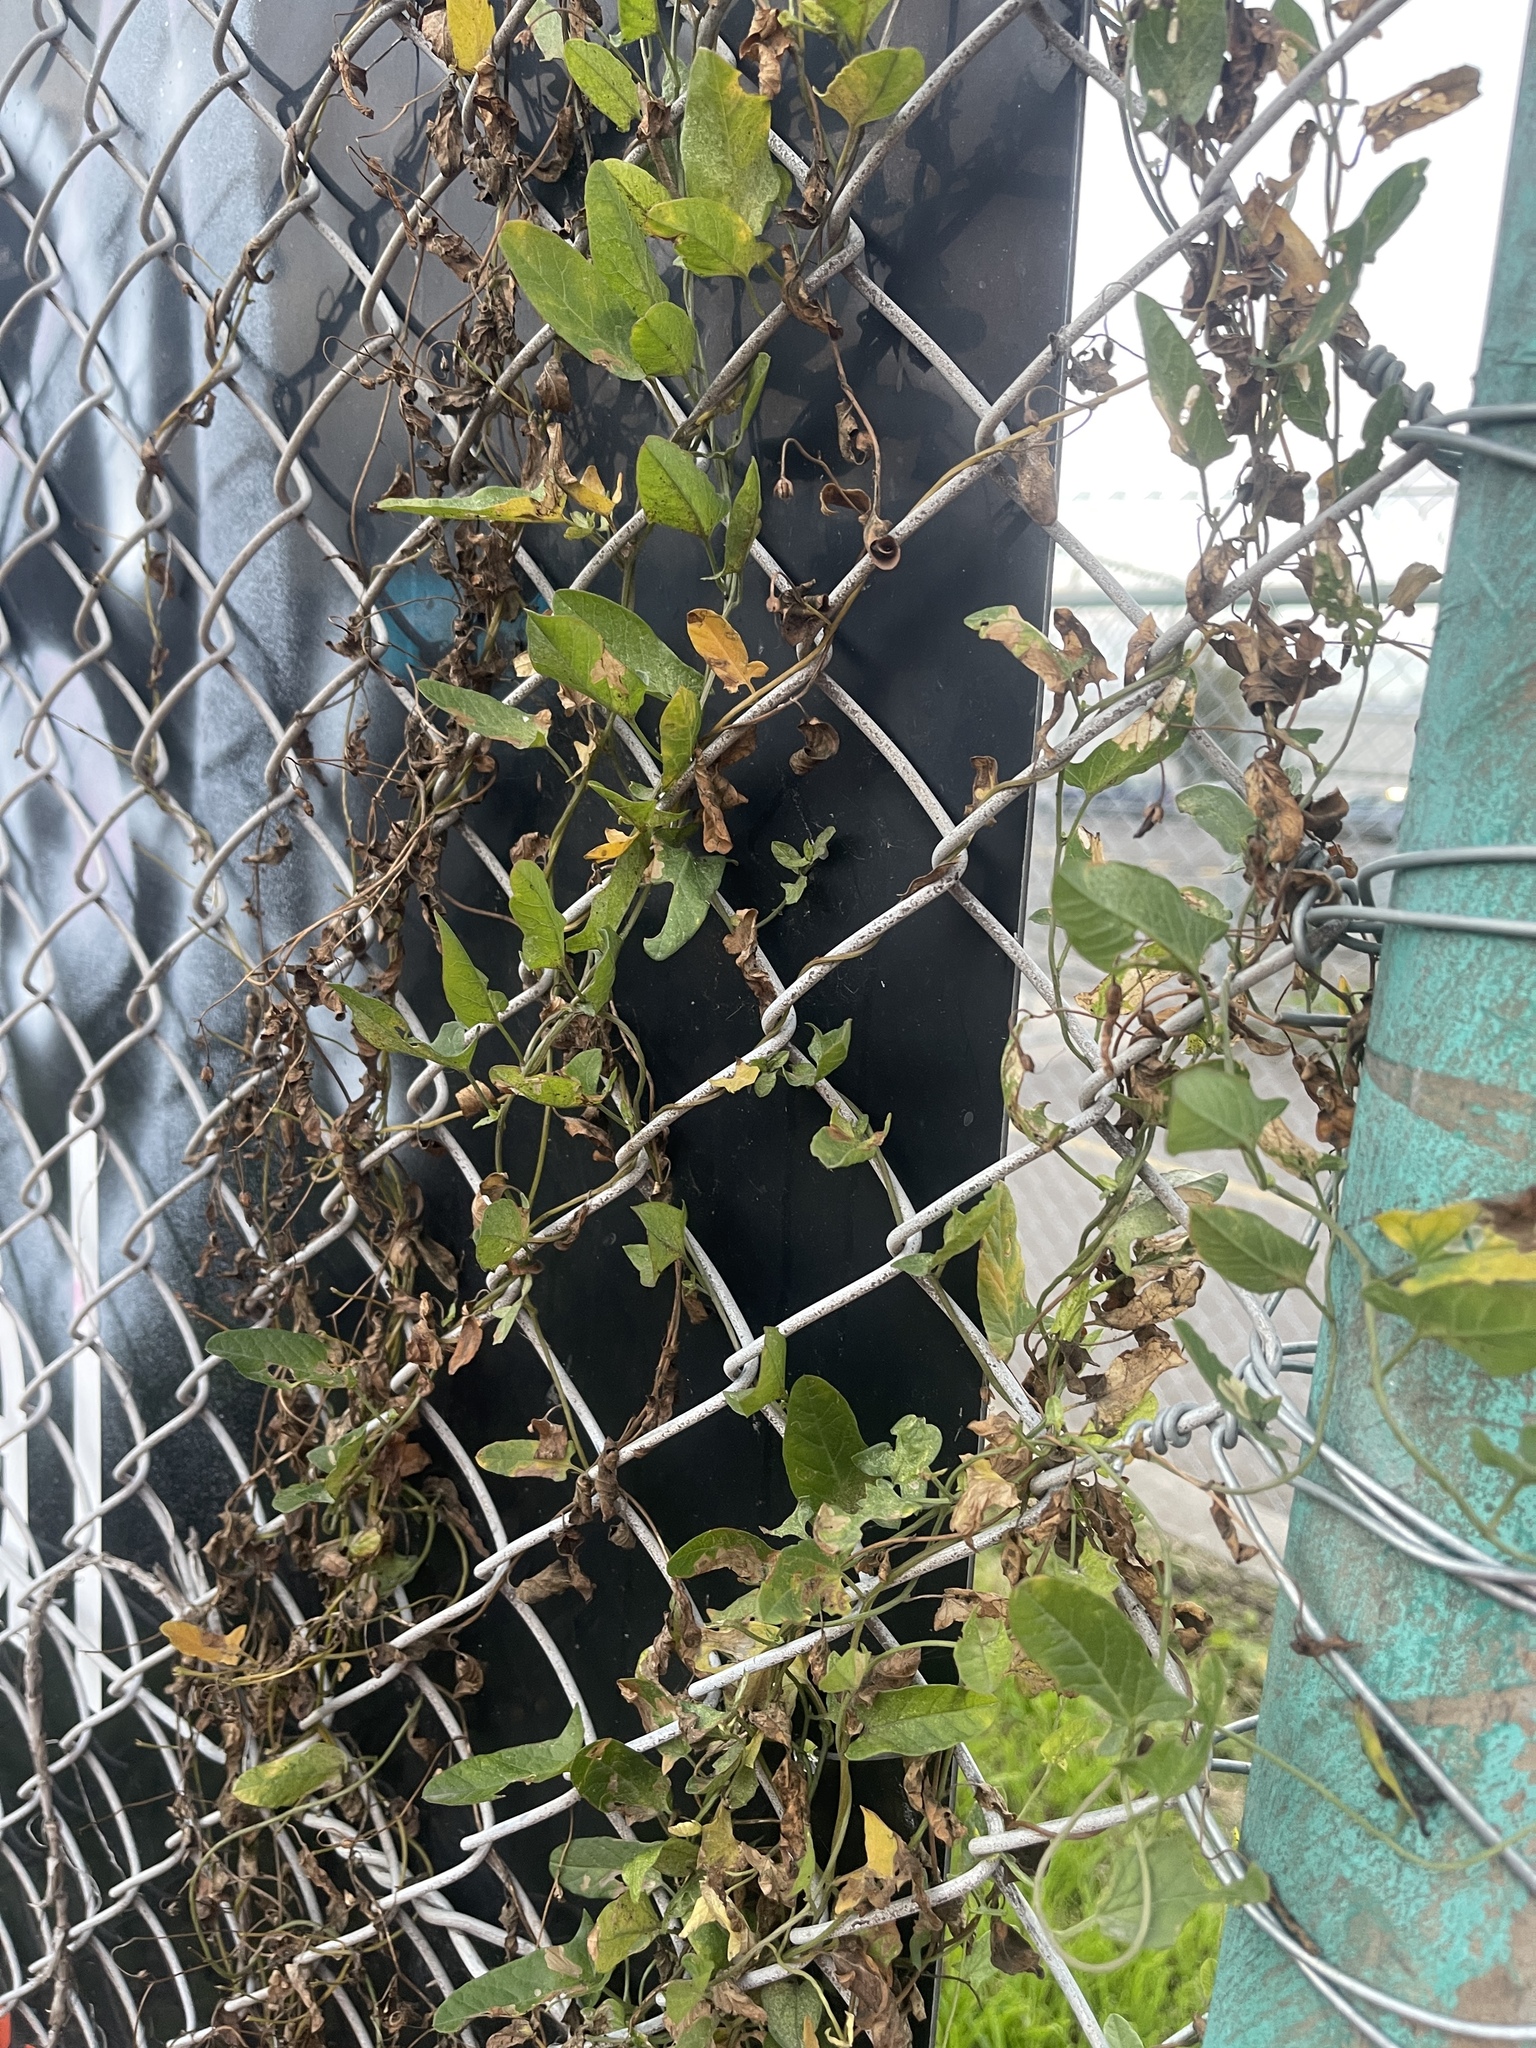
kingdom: Plantae
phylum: Tracheophyta
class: Magnoliopsida
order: Solanales
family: Convolvulaceae
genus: Convolvulus
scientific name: Convolvulus arvensis
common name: Field bindweed
